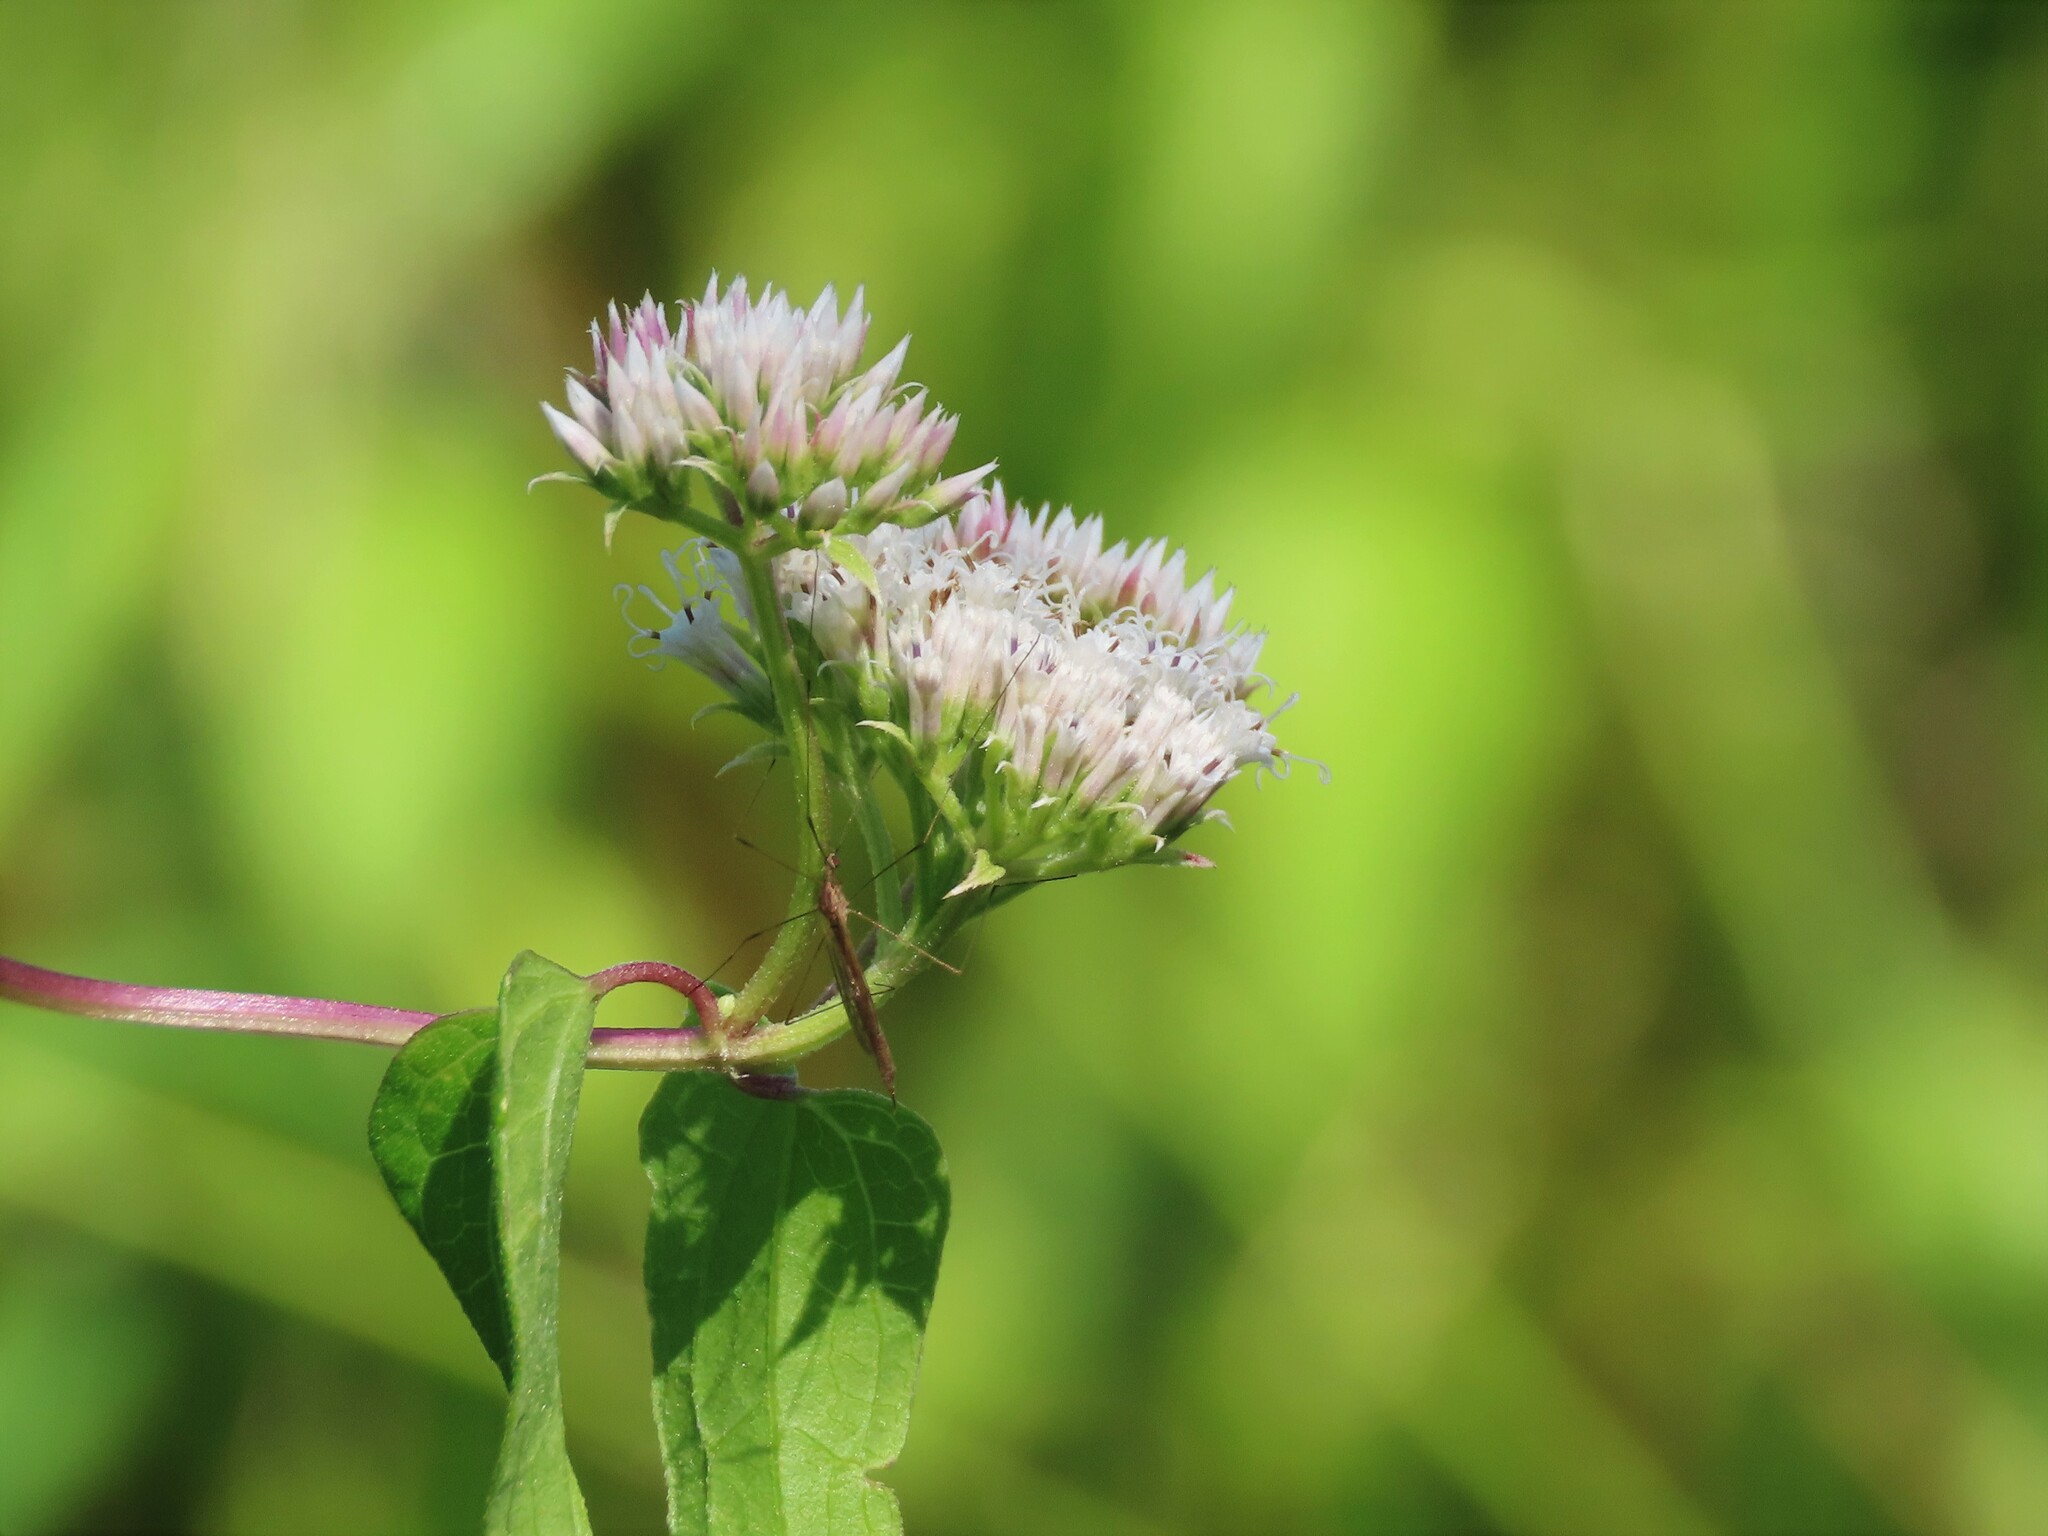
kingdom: Plantae
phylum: Tracheophyta
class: Magnoliopsida
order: Asterales
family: Asteraceae
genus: Mikania
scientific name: Mikania scandens
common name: Climbing hempvine
